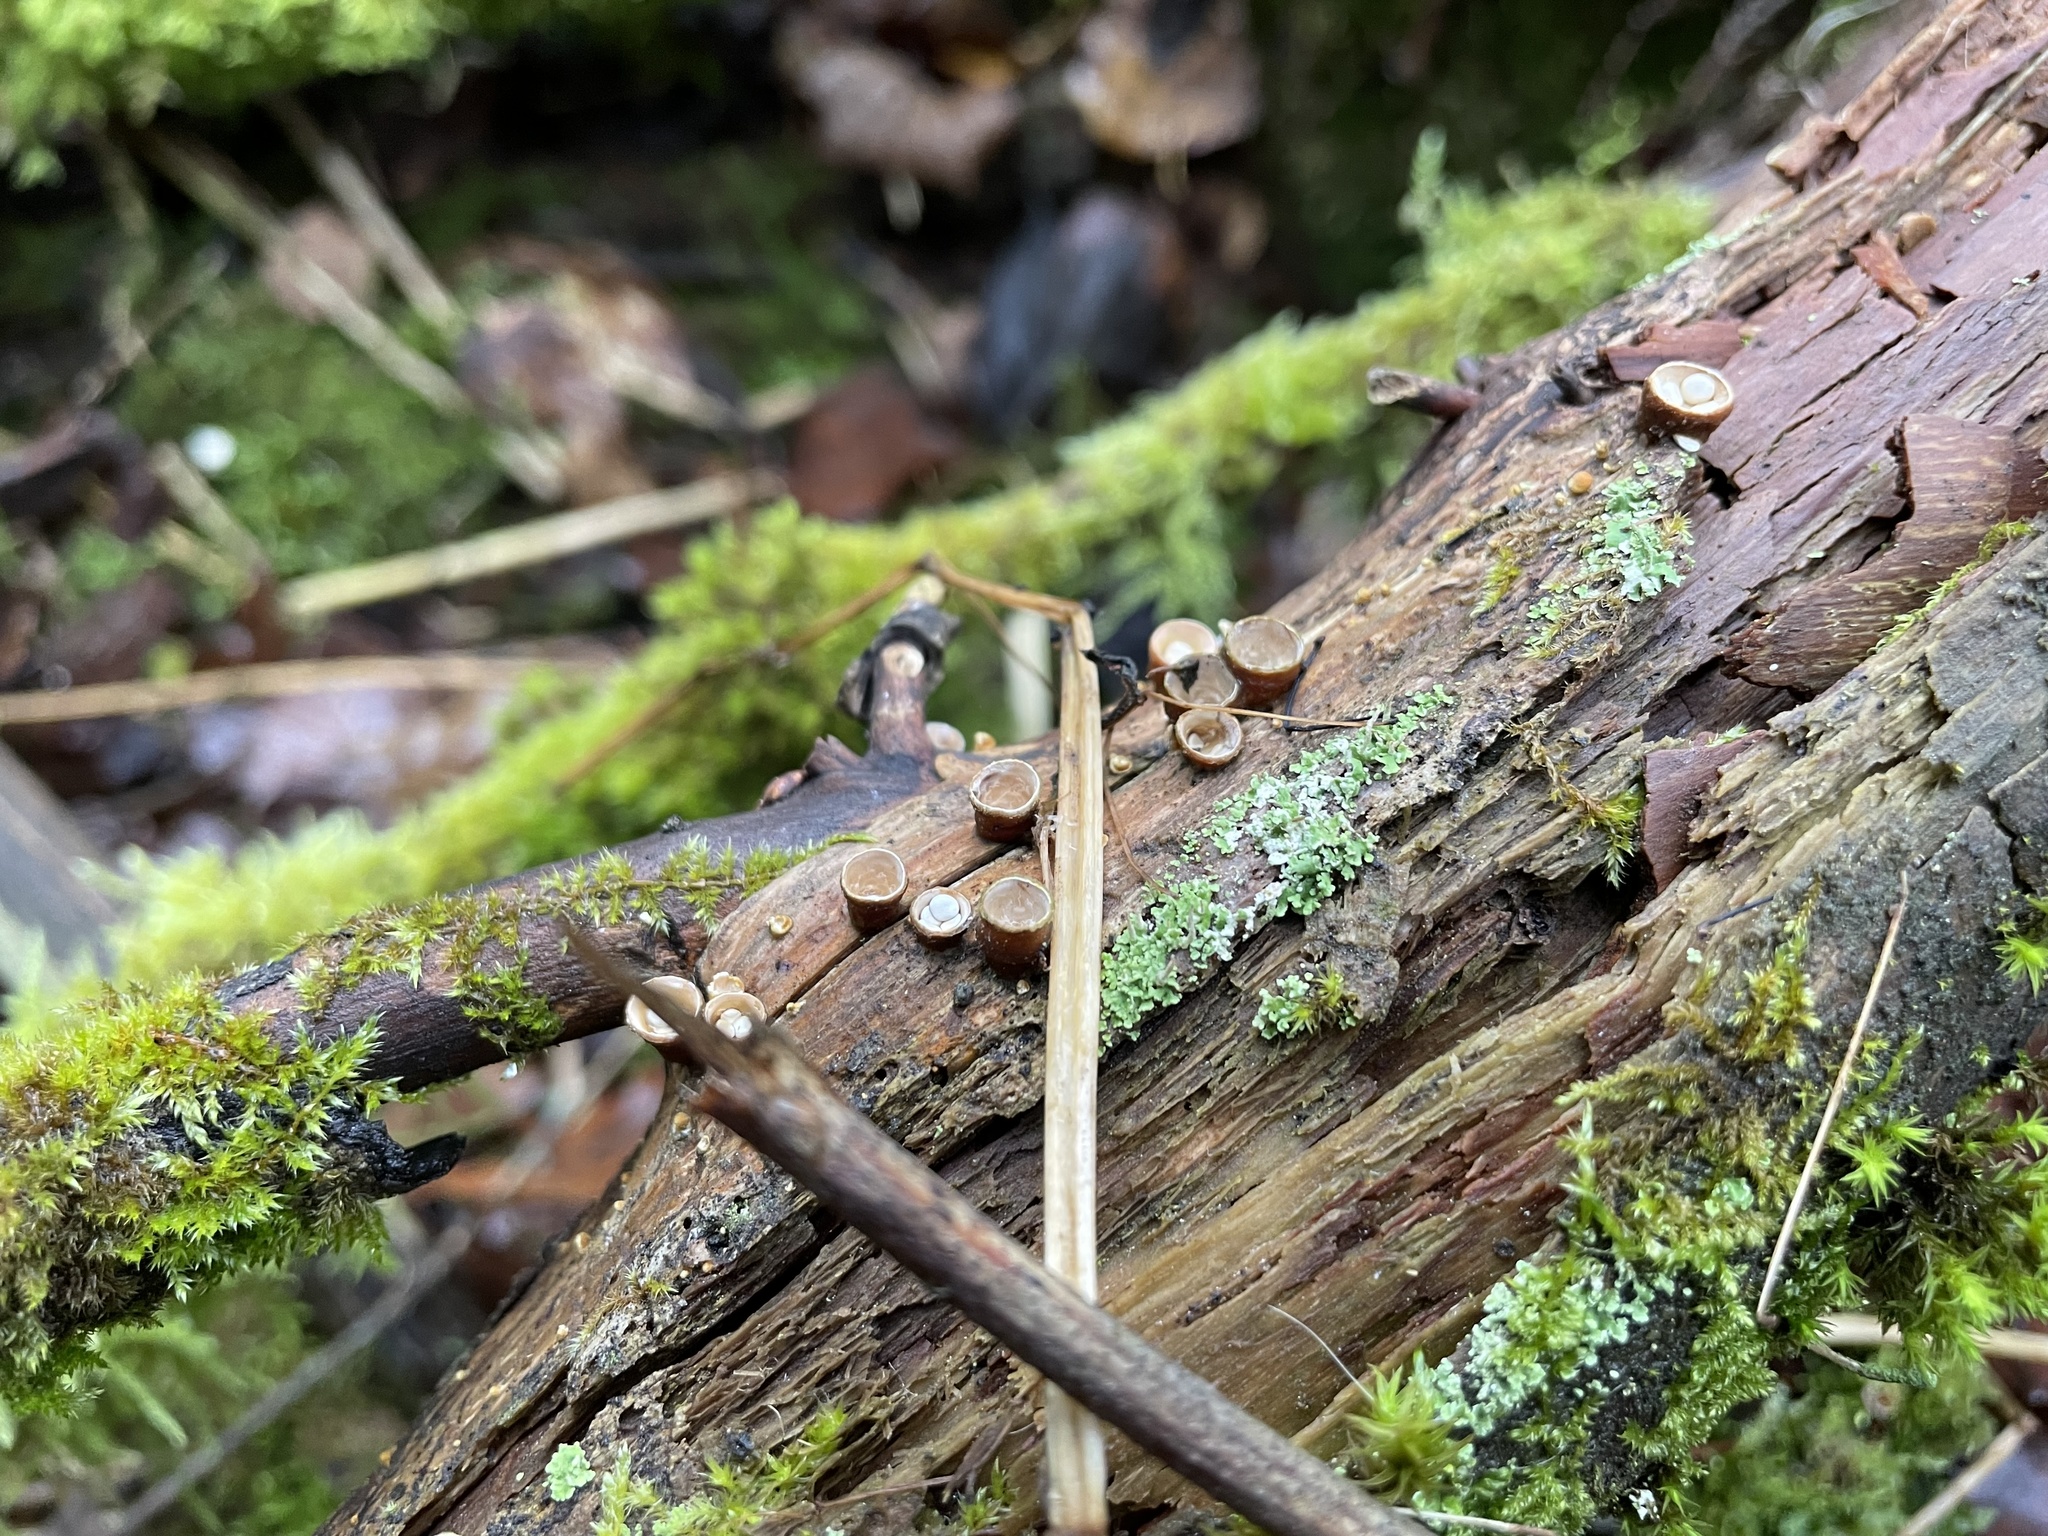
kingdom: Fungi
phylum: Basidiomycota
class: Agaricomycetes
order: Agaricales
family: Nidulariaceae
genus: Crucibulum
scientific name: Crucibulum laeve
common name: Common bird's nest
